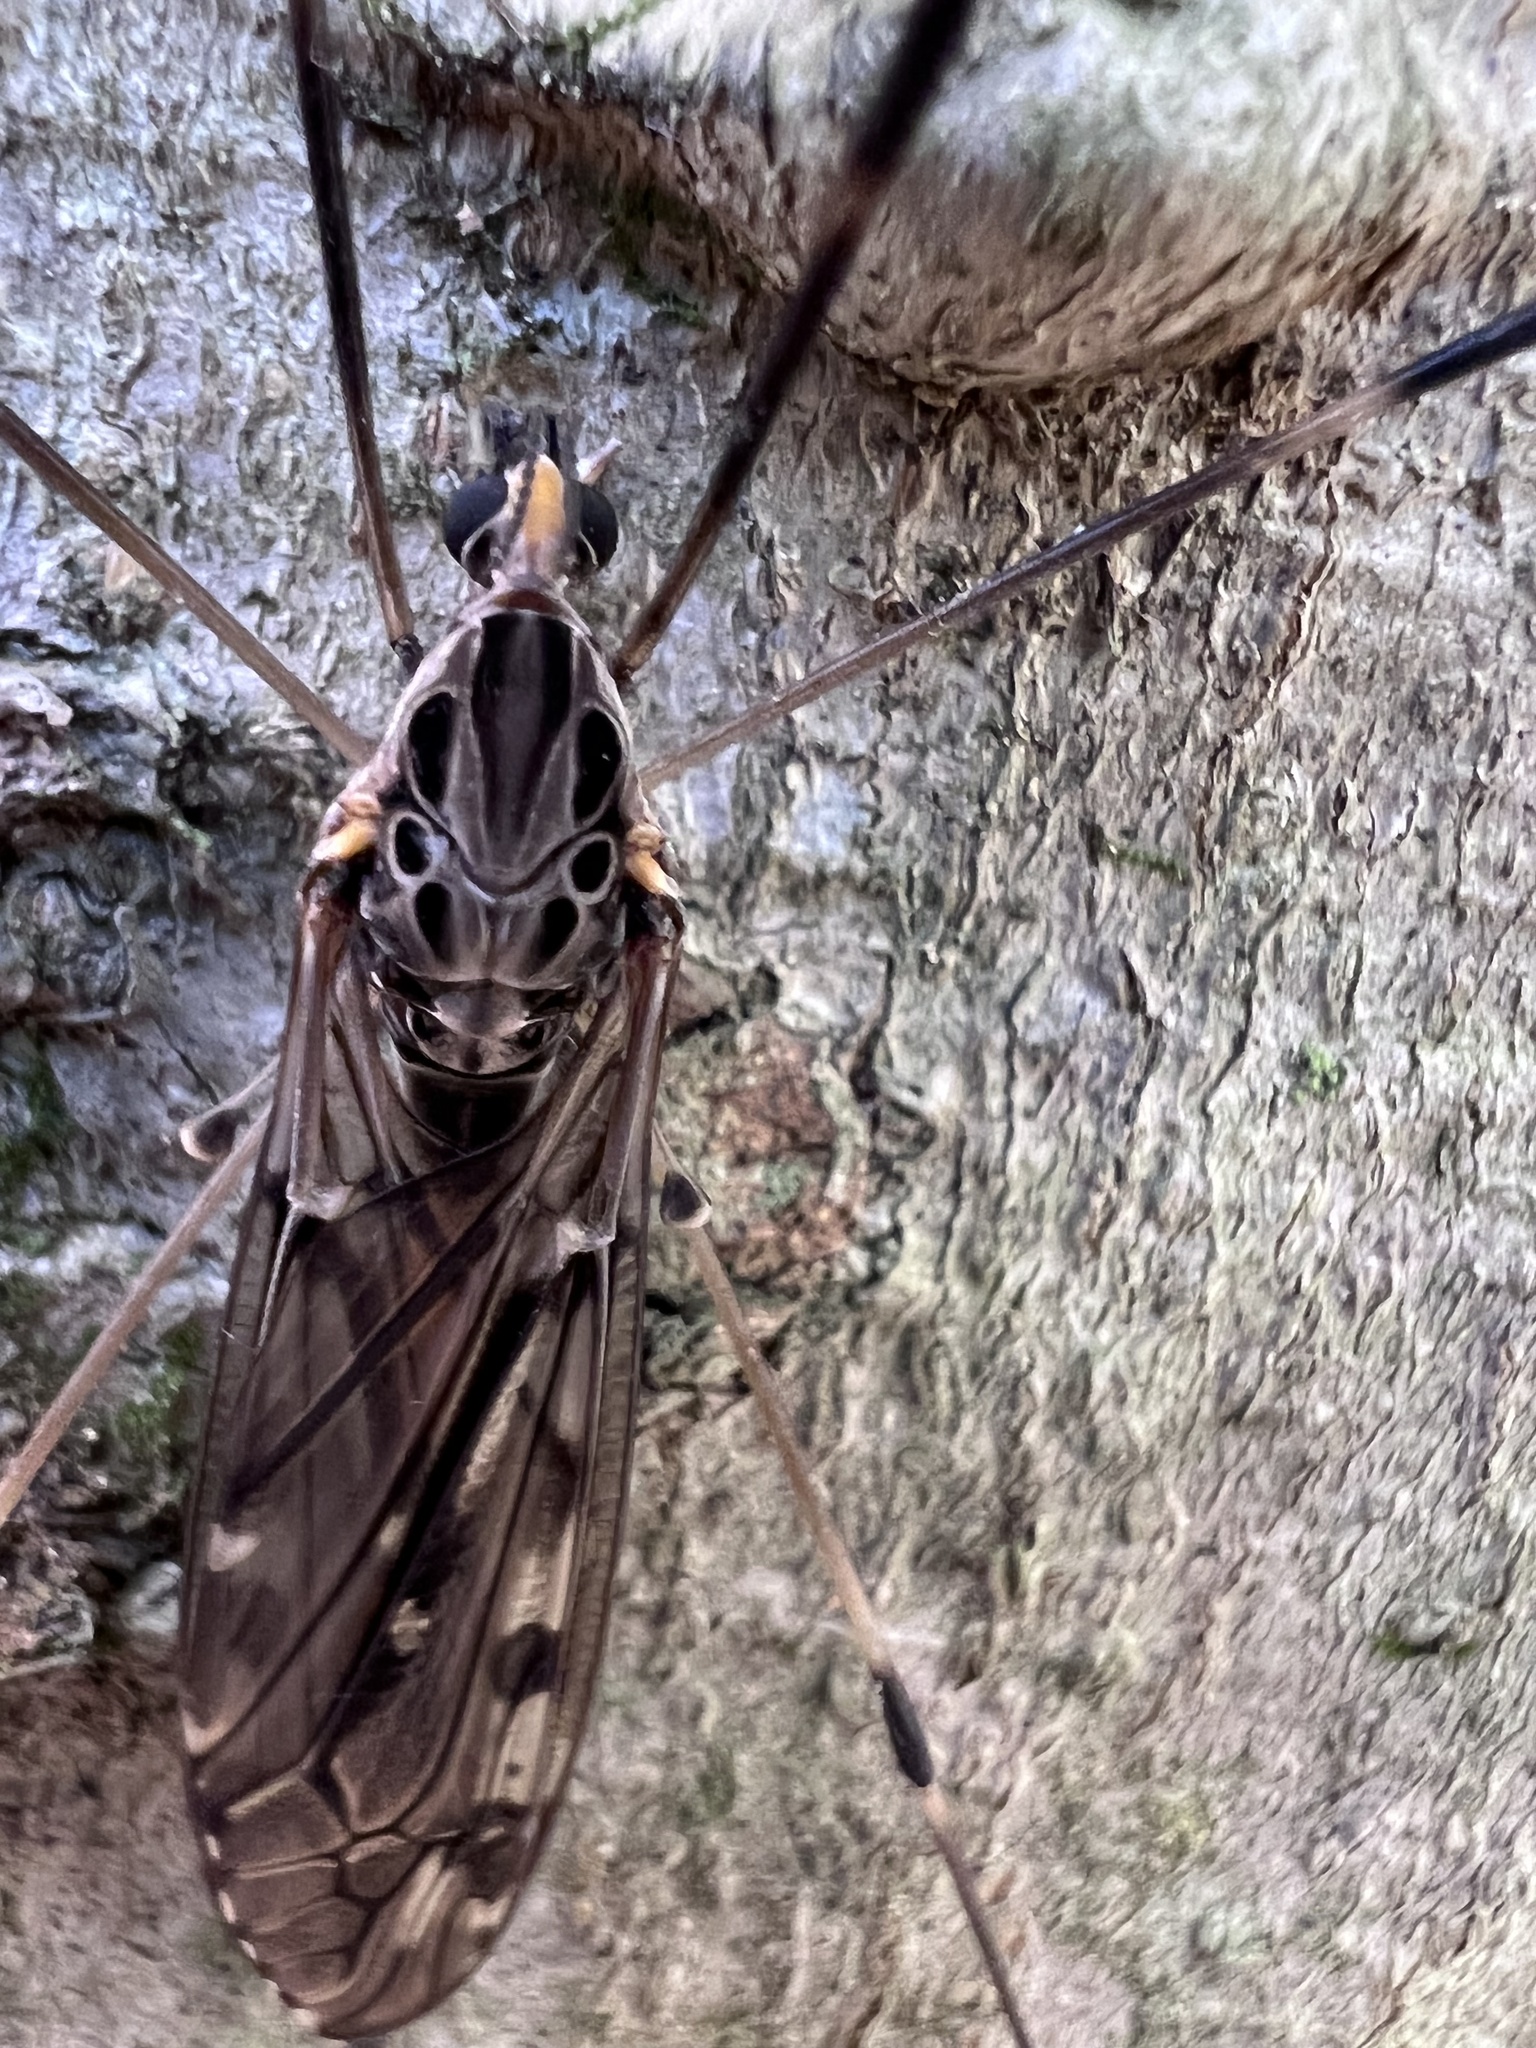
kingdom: Animalia
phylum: Arthropoda
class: Insecta
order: Diptera
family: Tipulidae
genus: Tipula
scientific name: Tipula abdominalis
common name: Giant crane fly
